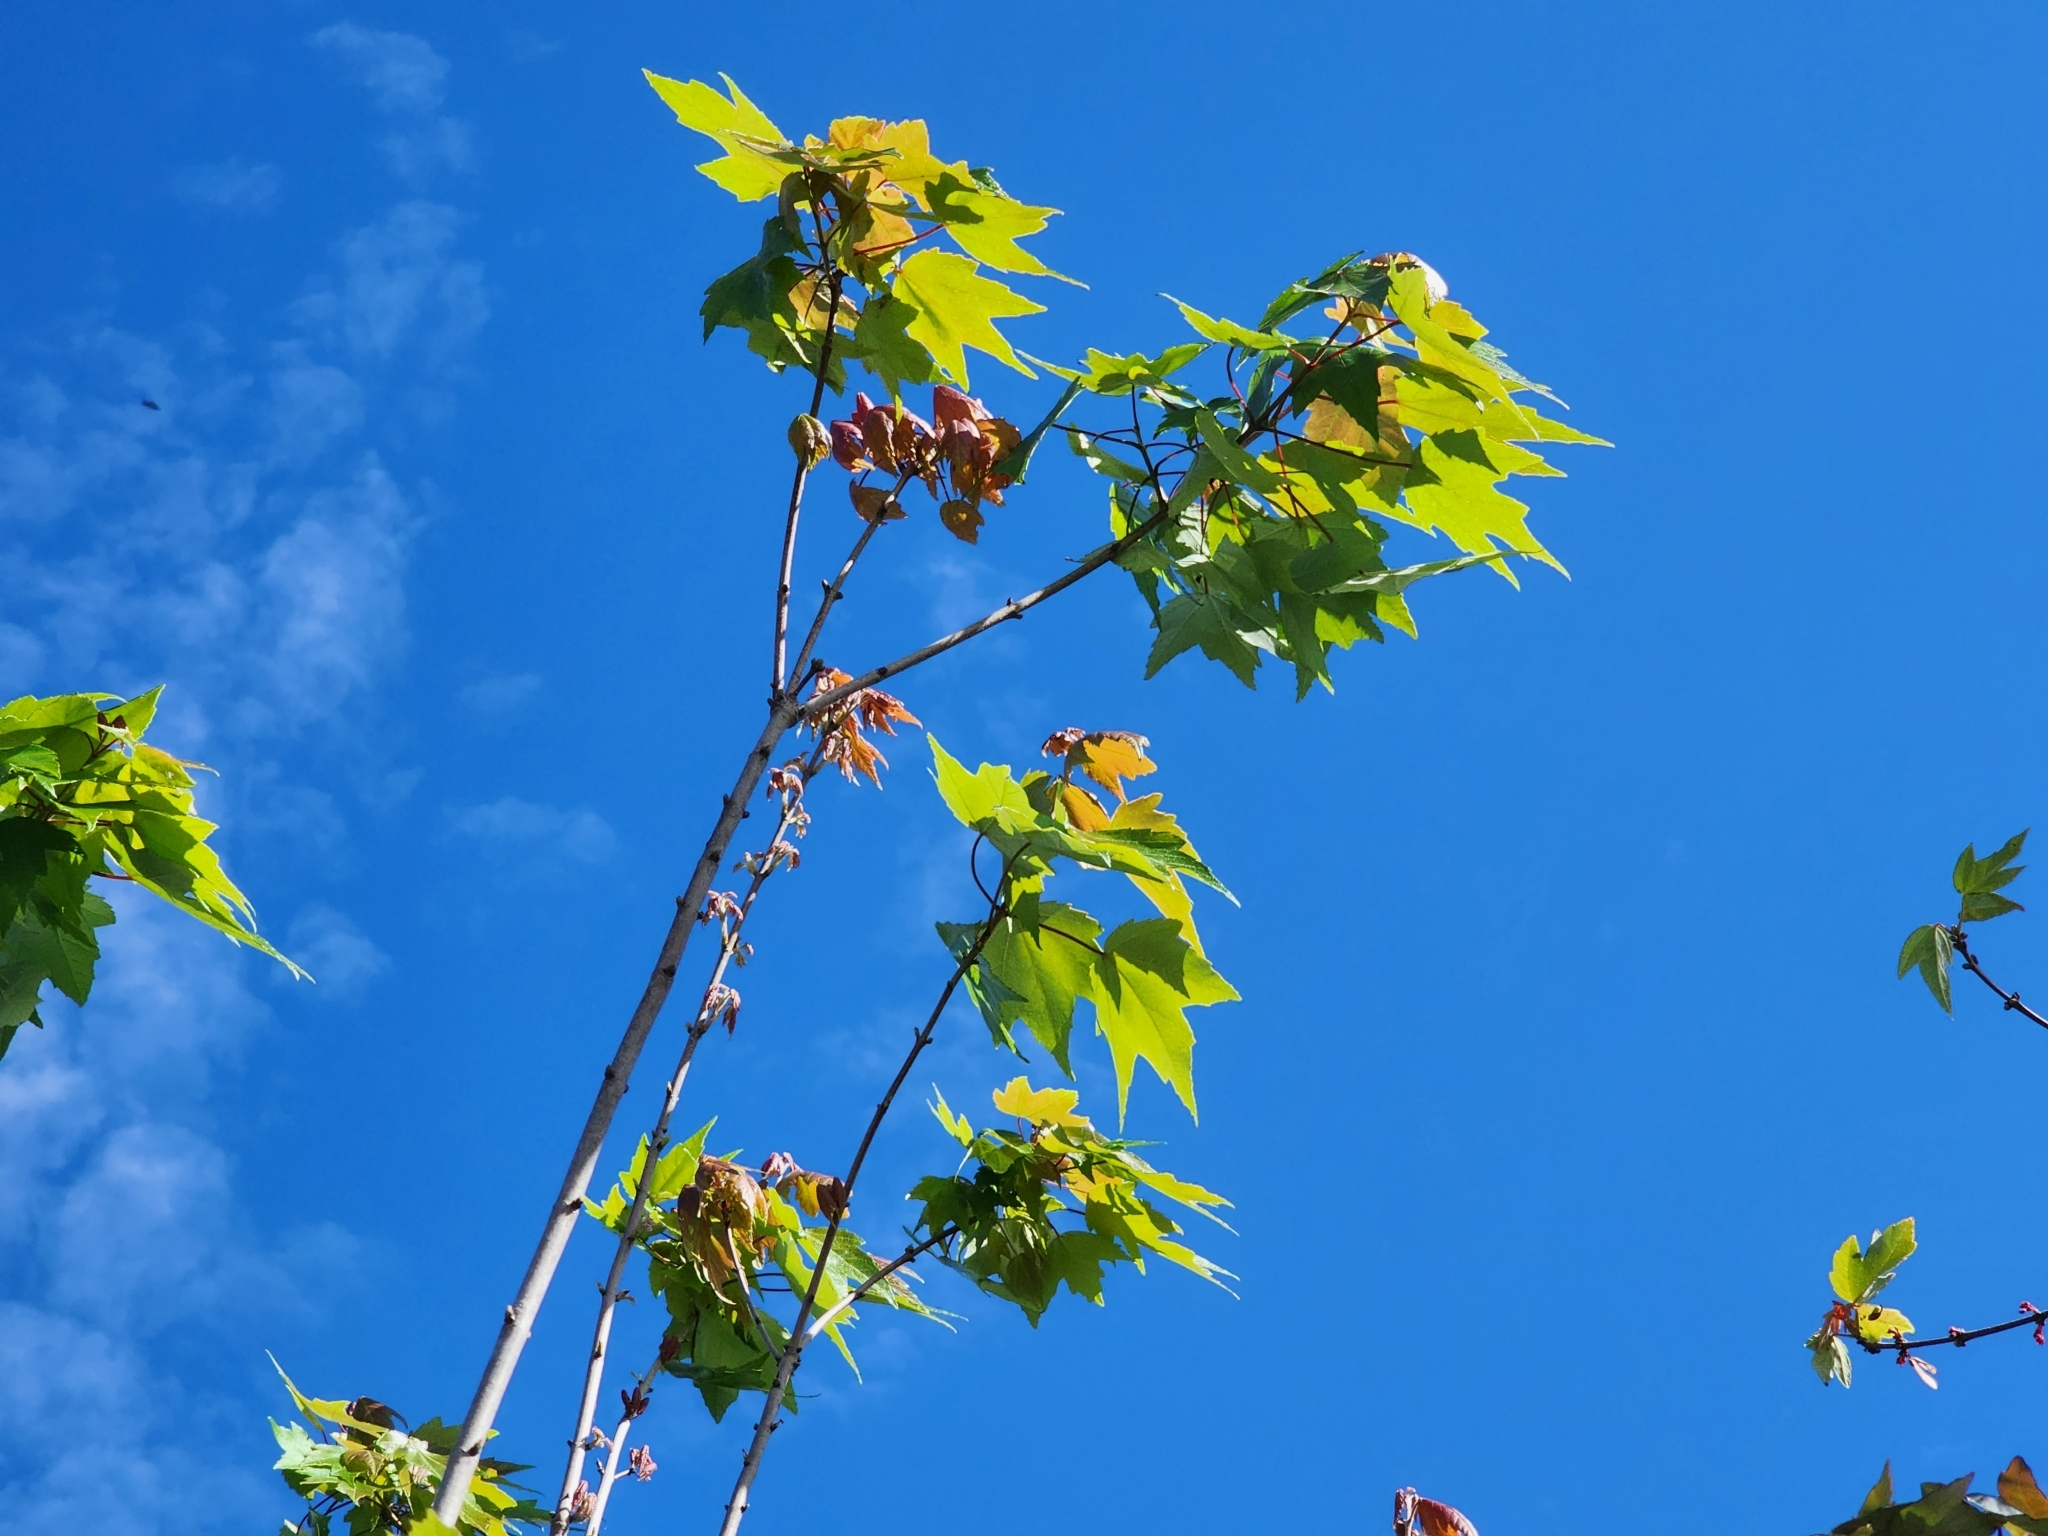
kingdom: Plantae
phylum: Tracheophyta
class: Magnoliopsida
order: Sapindales
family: Sapindaceae
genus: Acer
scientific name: Acer rubrum
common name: Red maple
